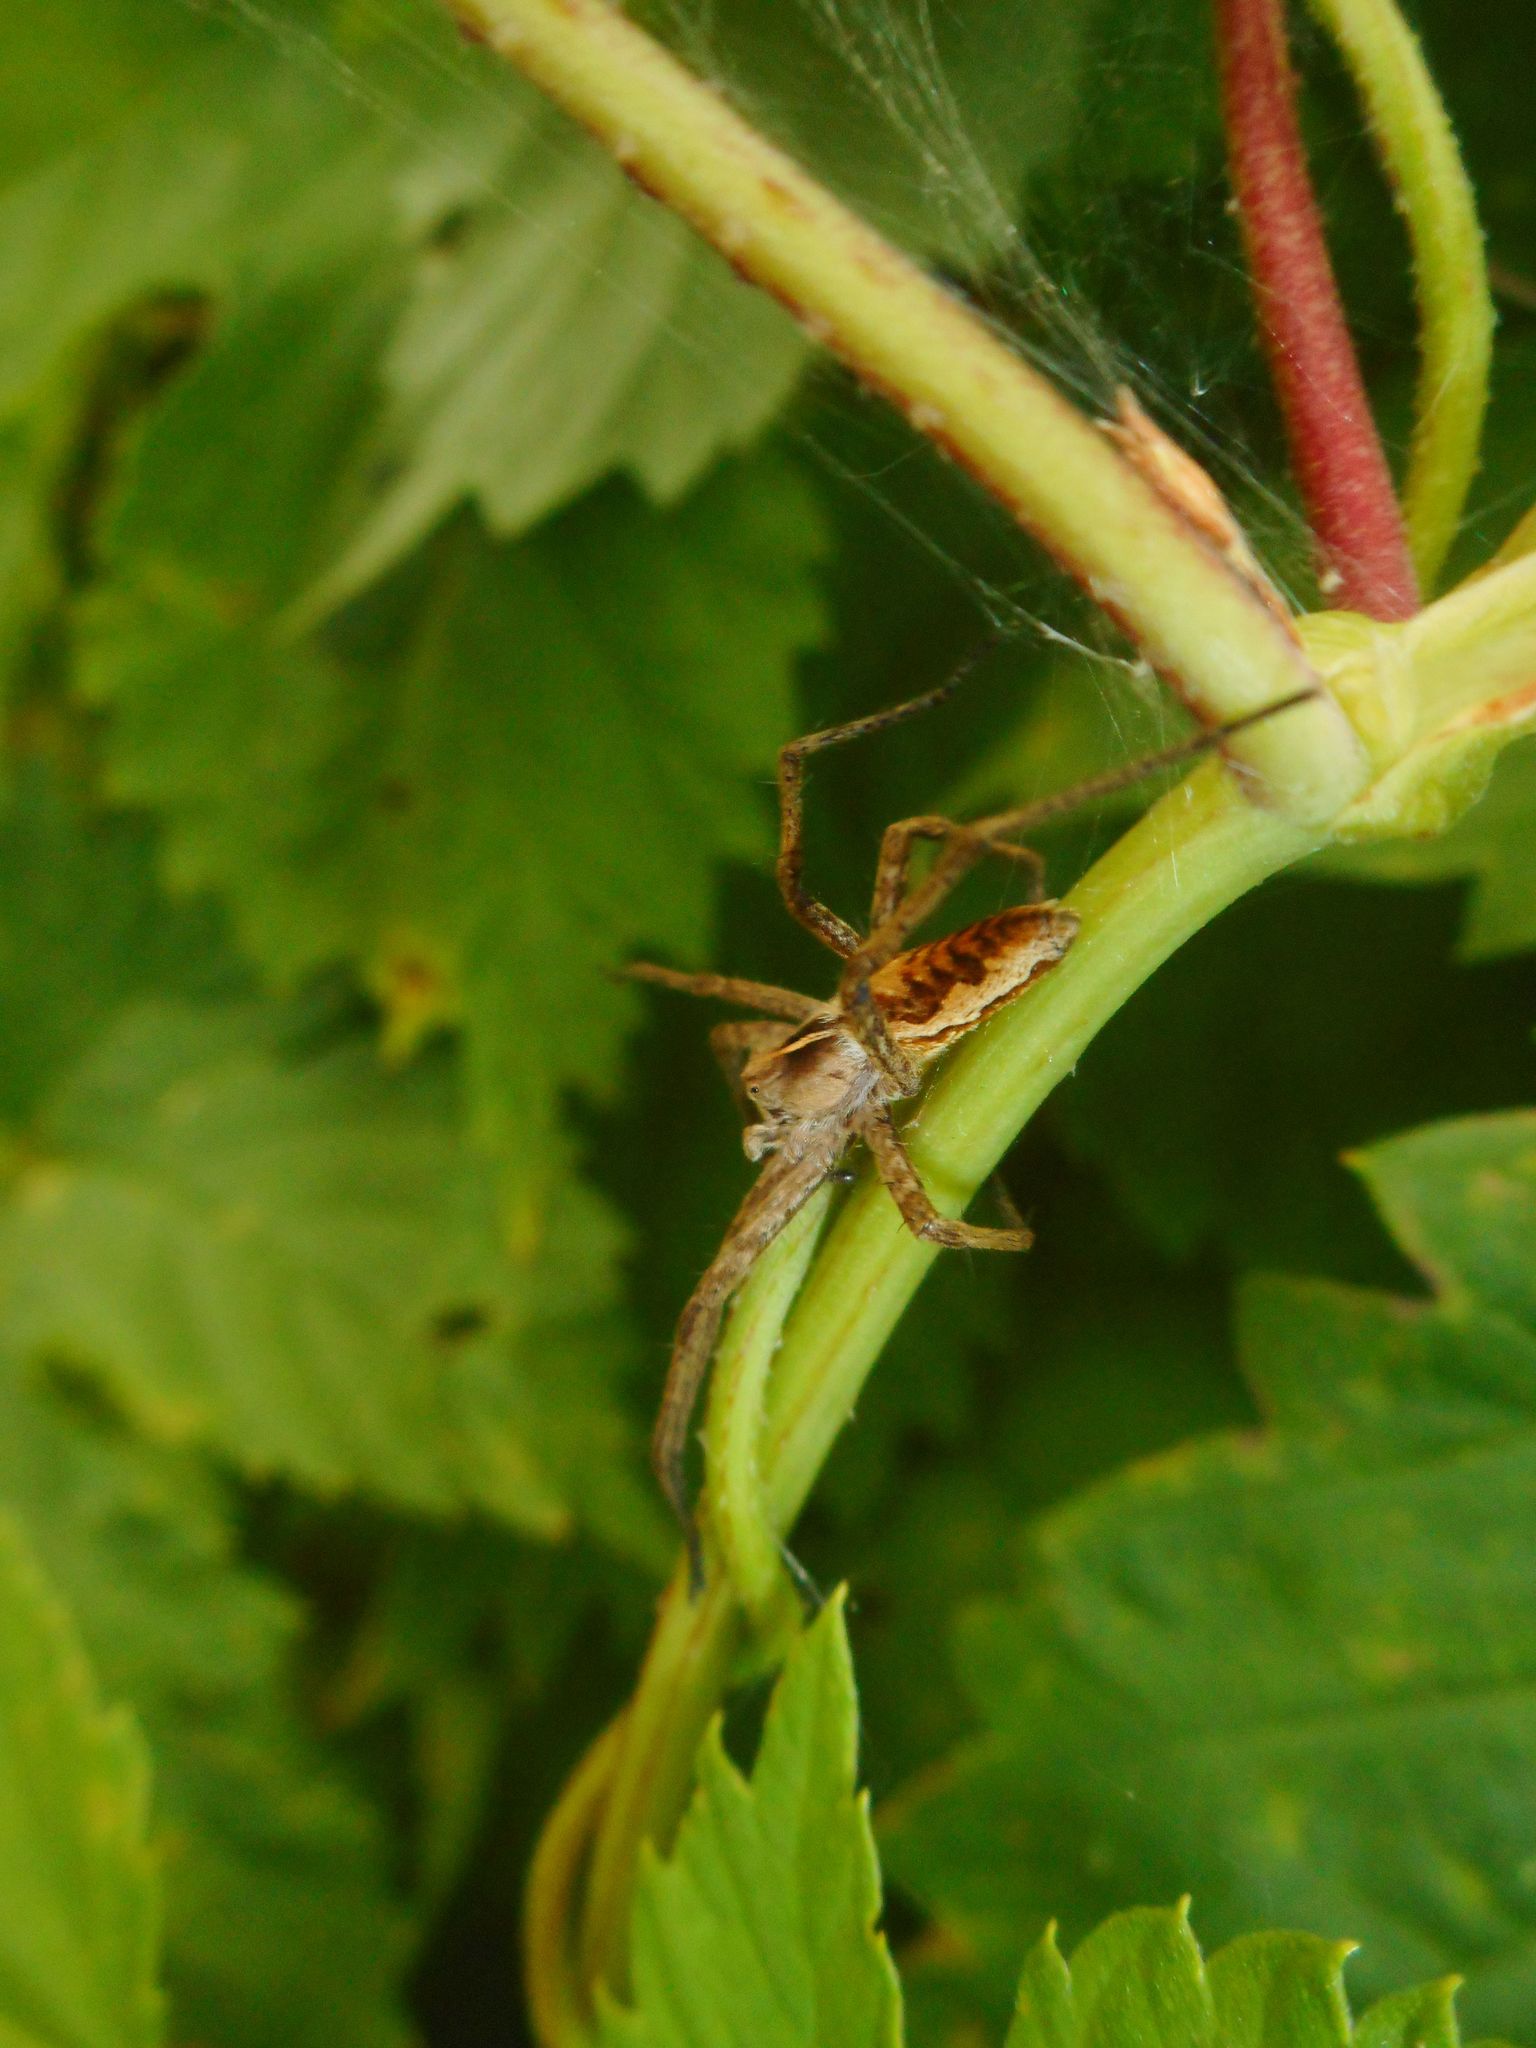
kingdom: Animalia
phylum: Arthropoda
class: Arachnida
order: Araneae
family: Pisauridae
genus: Pisaura
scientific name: Pisaura mirabilis
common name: Tent spider
